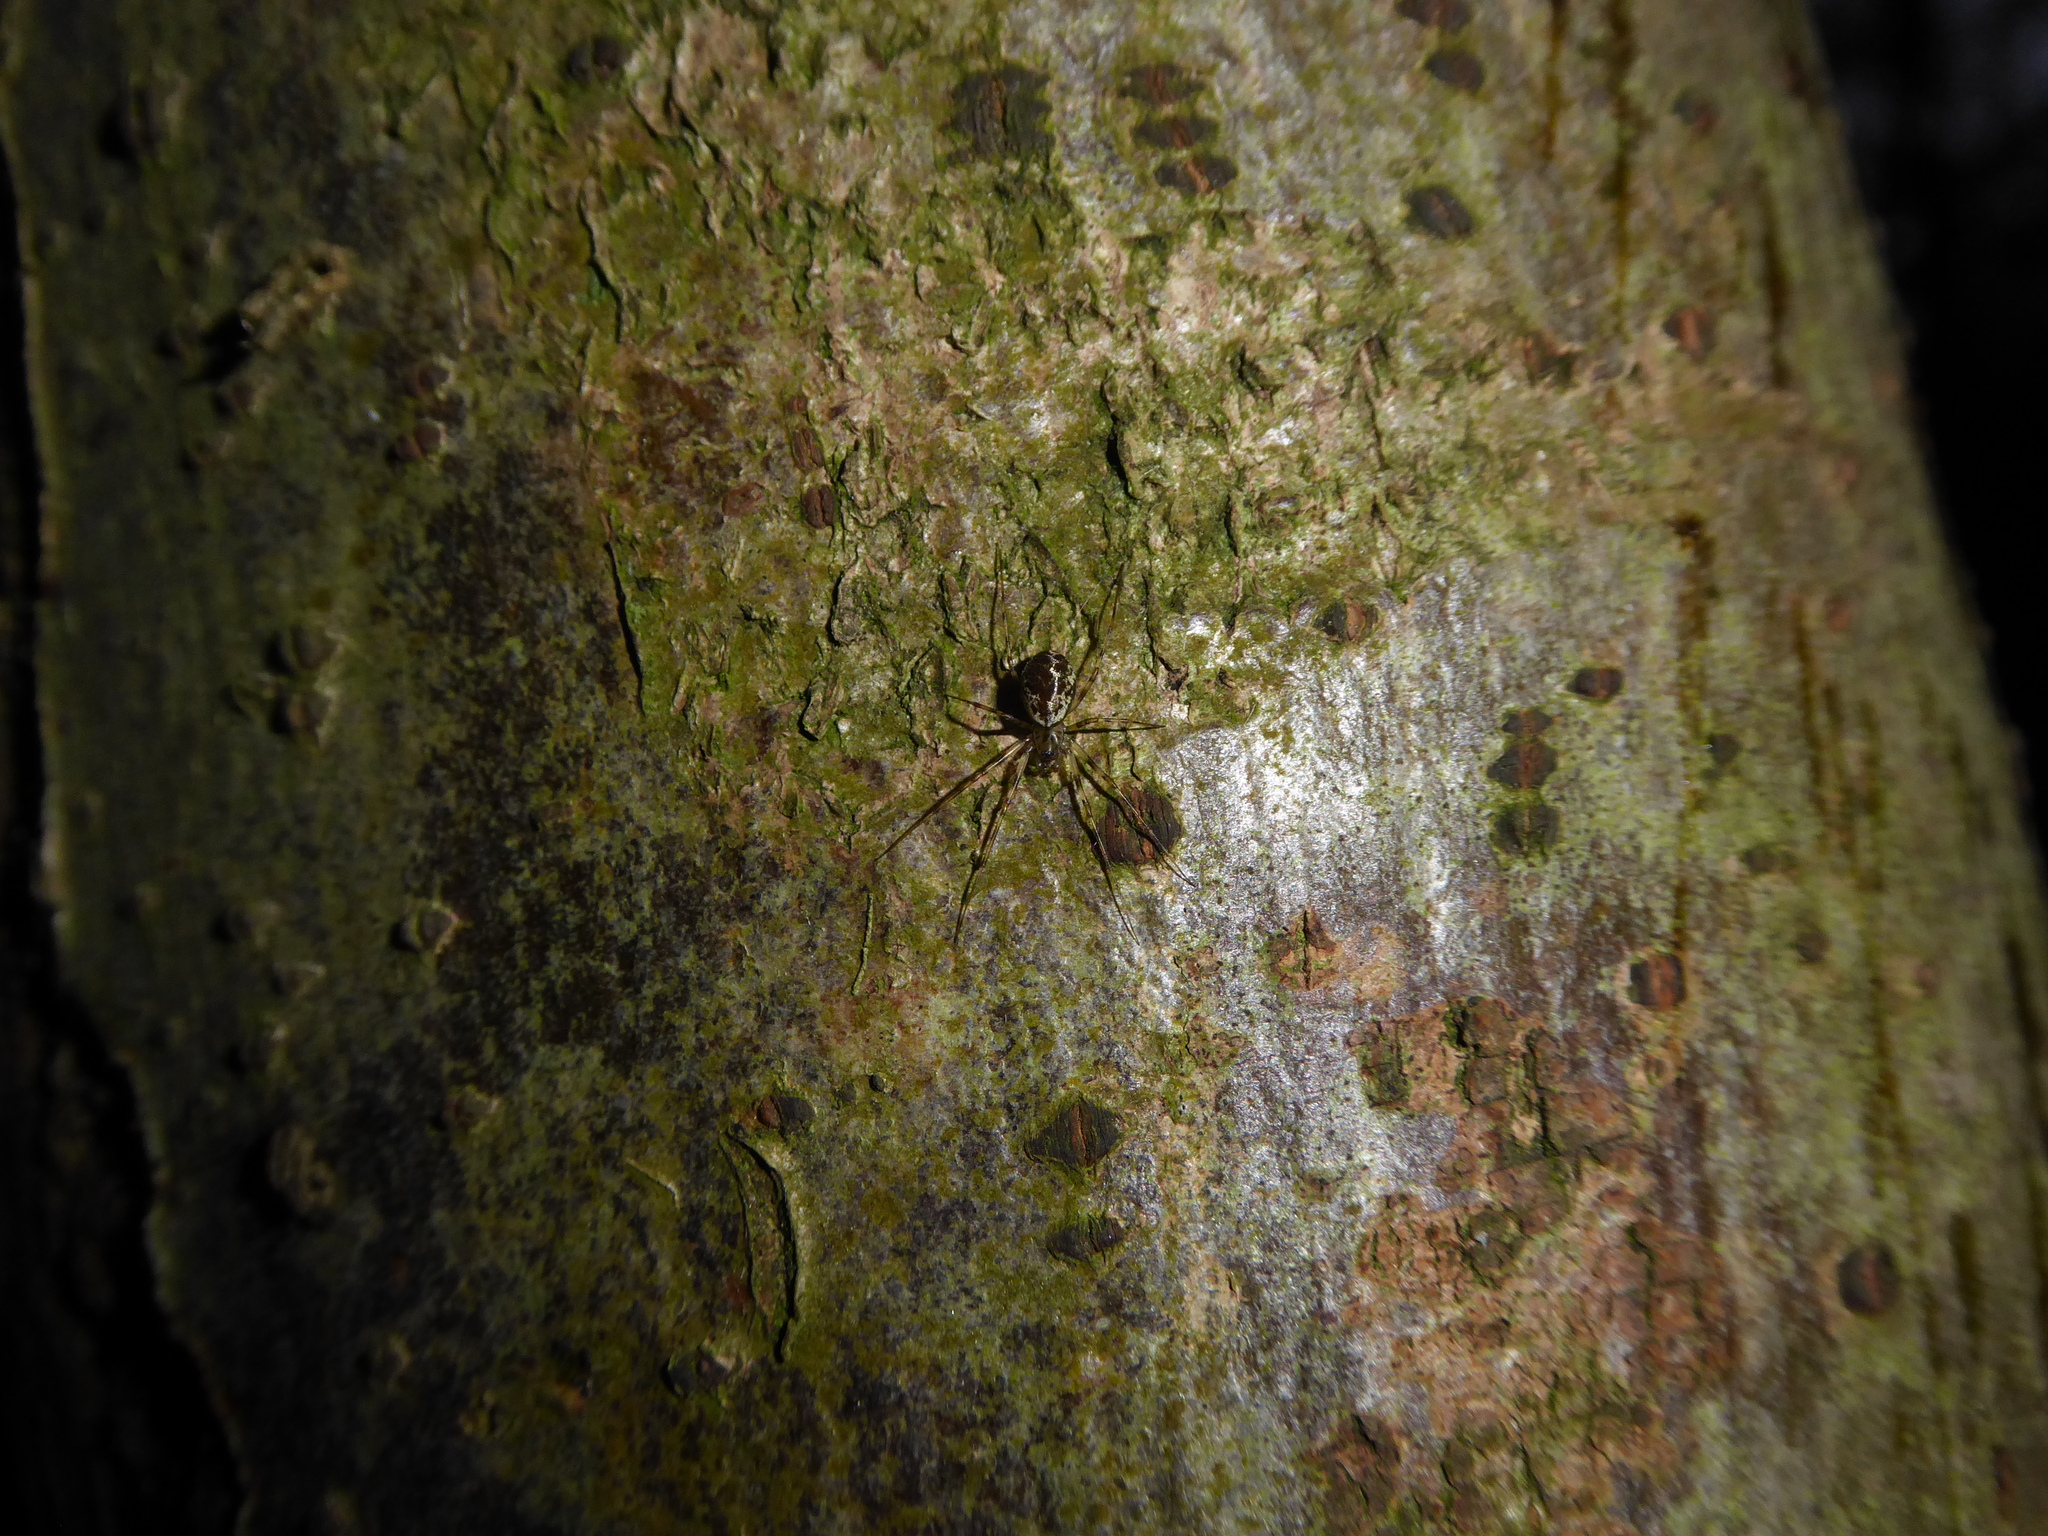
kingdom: Animalia
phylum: Arthropoda
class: Arachnida
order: Araneae
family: Linyphiidae
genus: Drapetisca
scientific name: Drapetisca socialis
